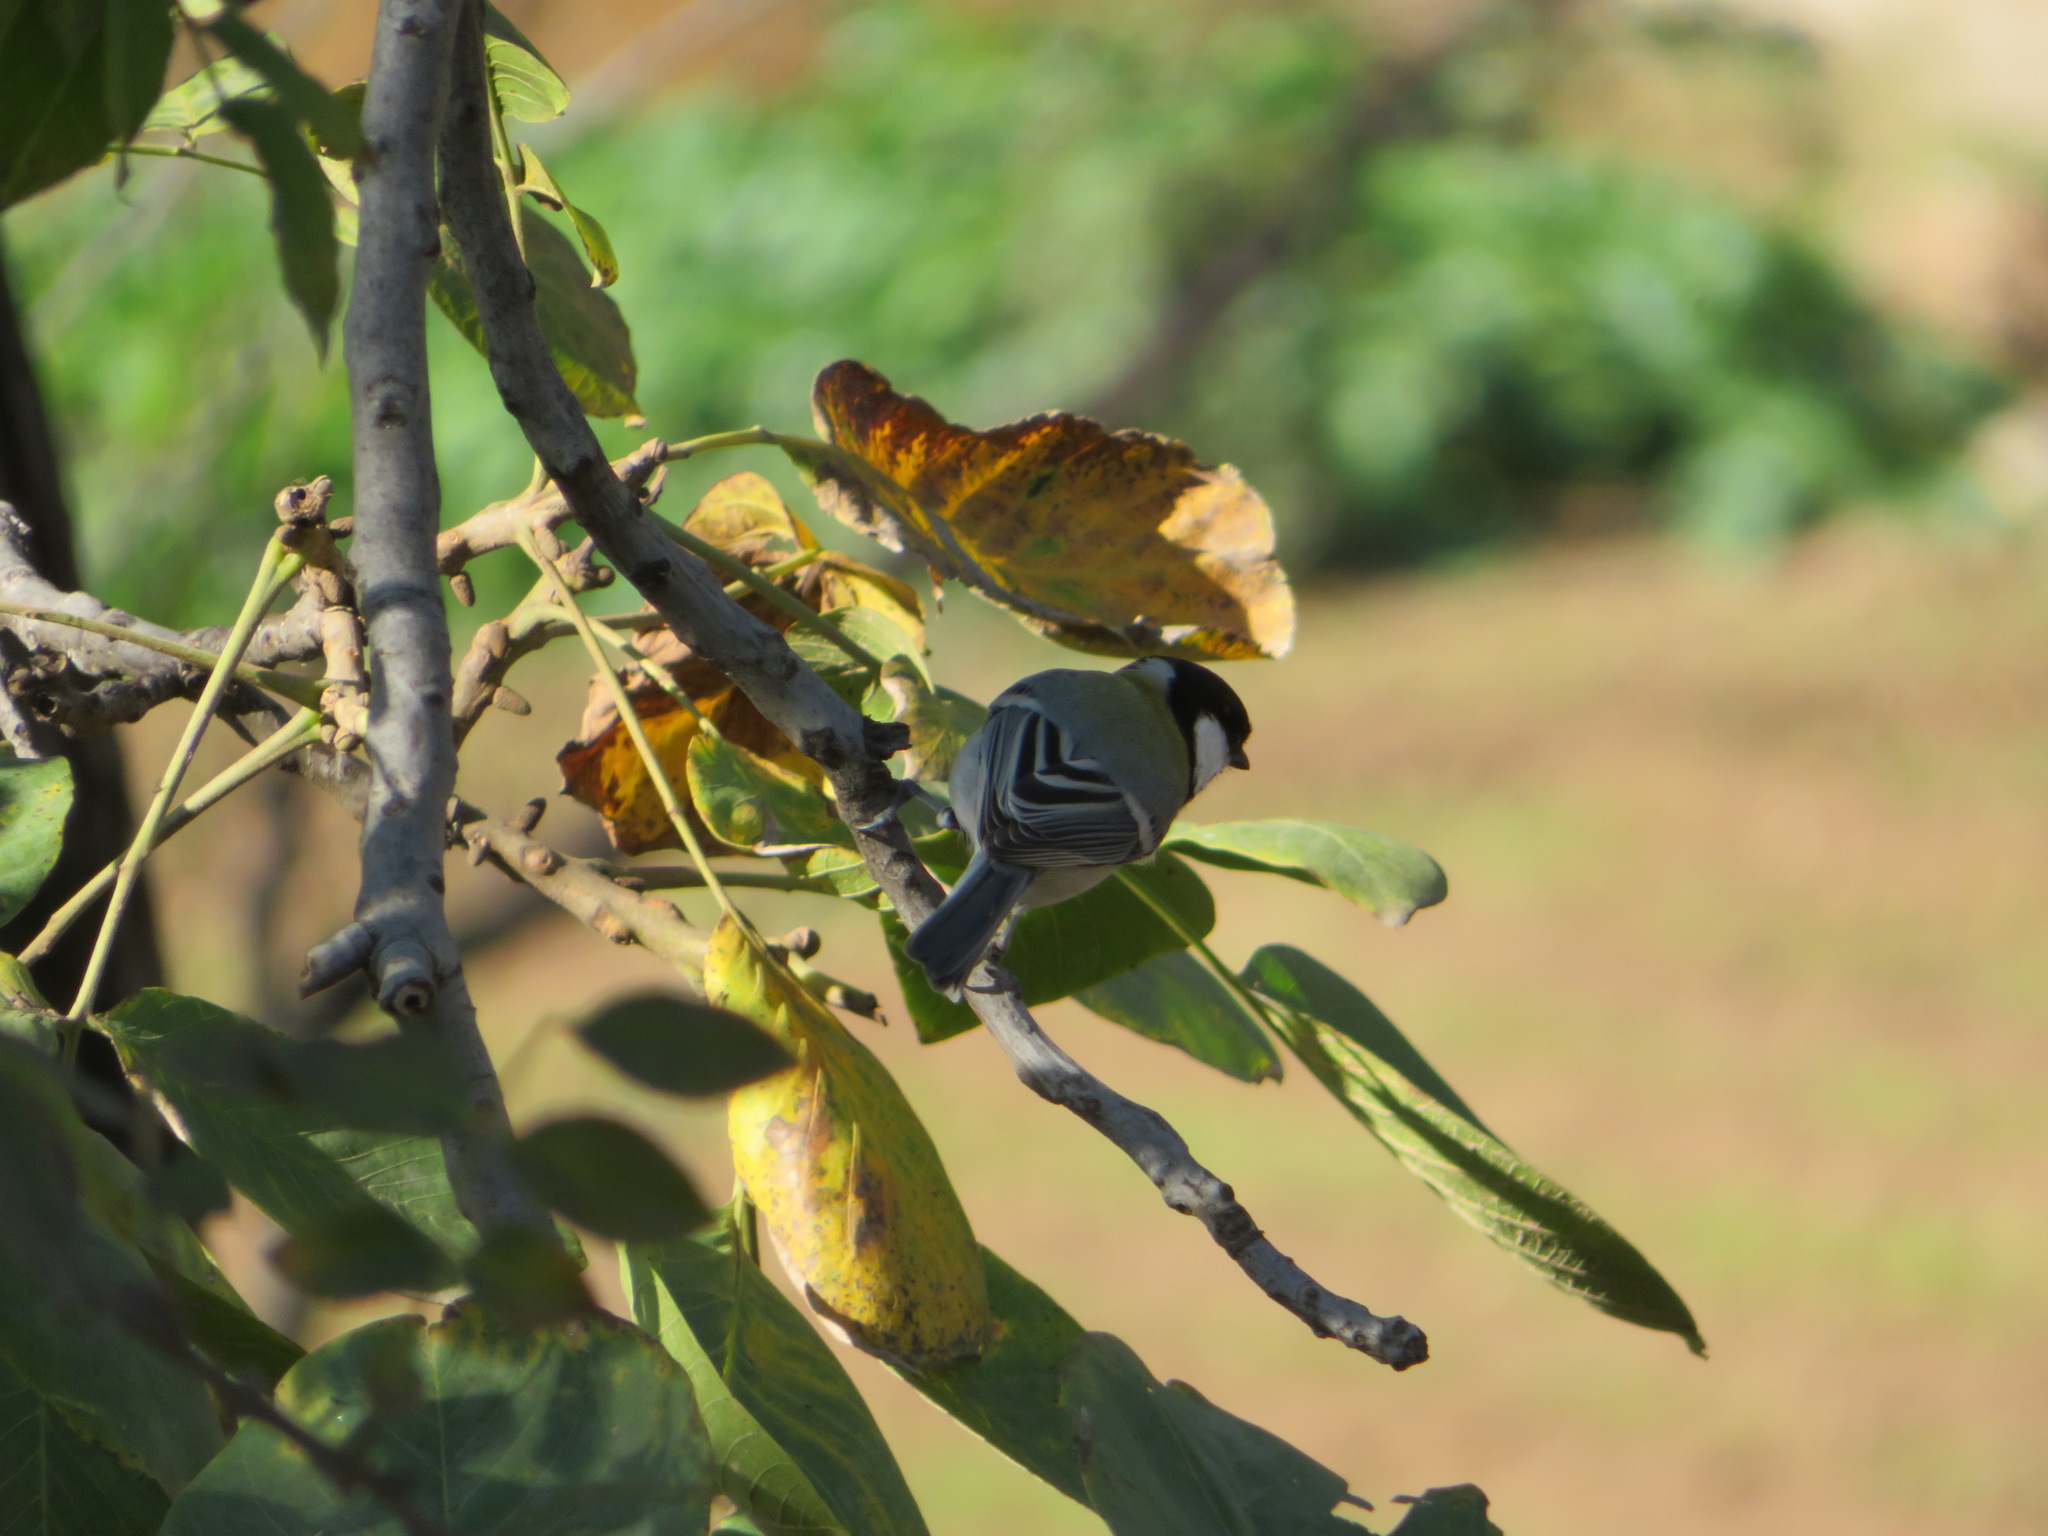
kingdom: Animalia
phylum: Chordata
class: Aves
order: Passeriformes
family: Paridae
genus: Parus
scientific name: Parus minor
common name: Japanese tit
